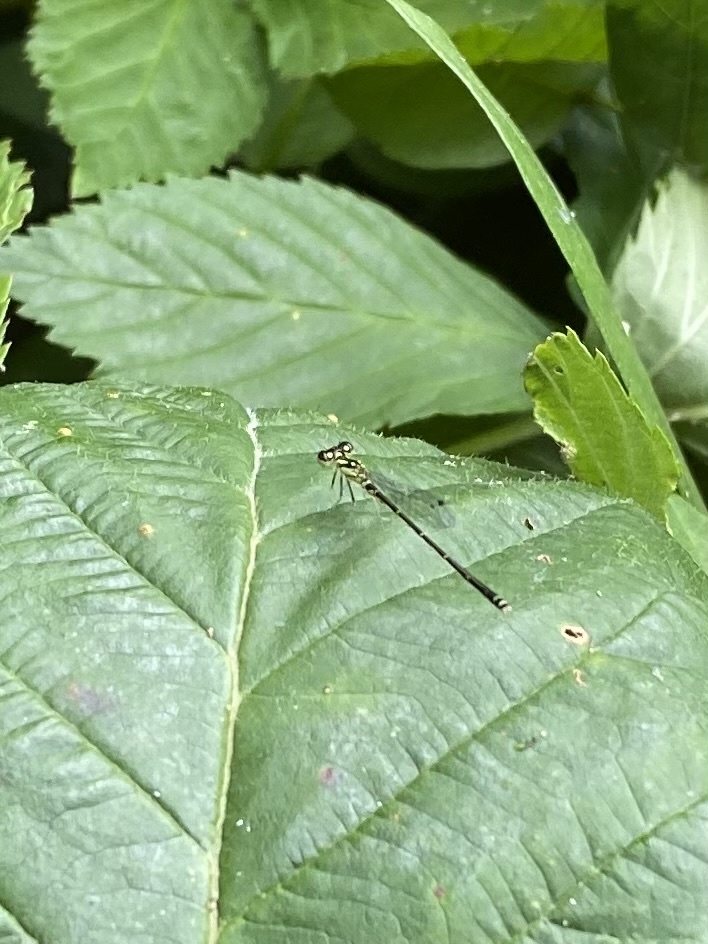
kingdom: Animalia
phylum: Arthropoda
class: Insecta
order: Odonata
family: Coenagrionidae
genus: Ischnura
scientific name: Ischnura posita
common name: Fragile forktail
